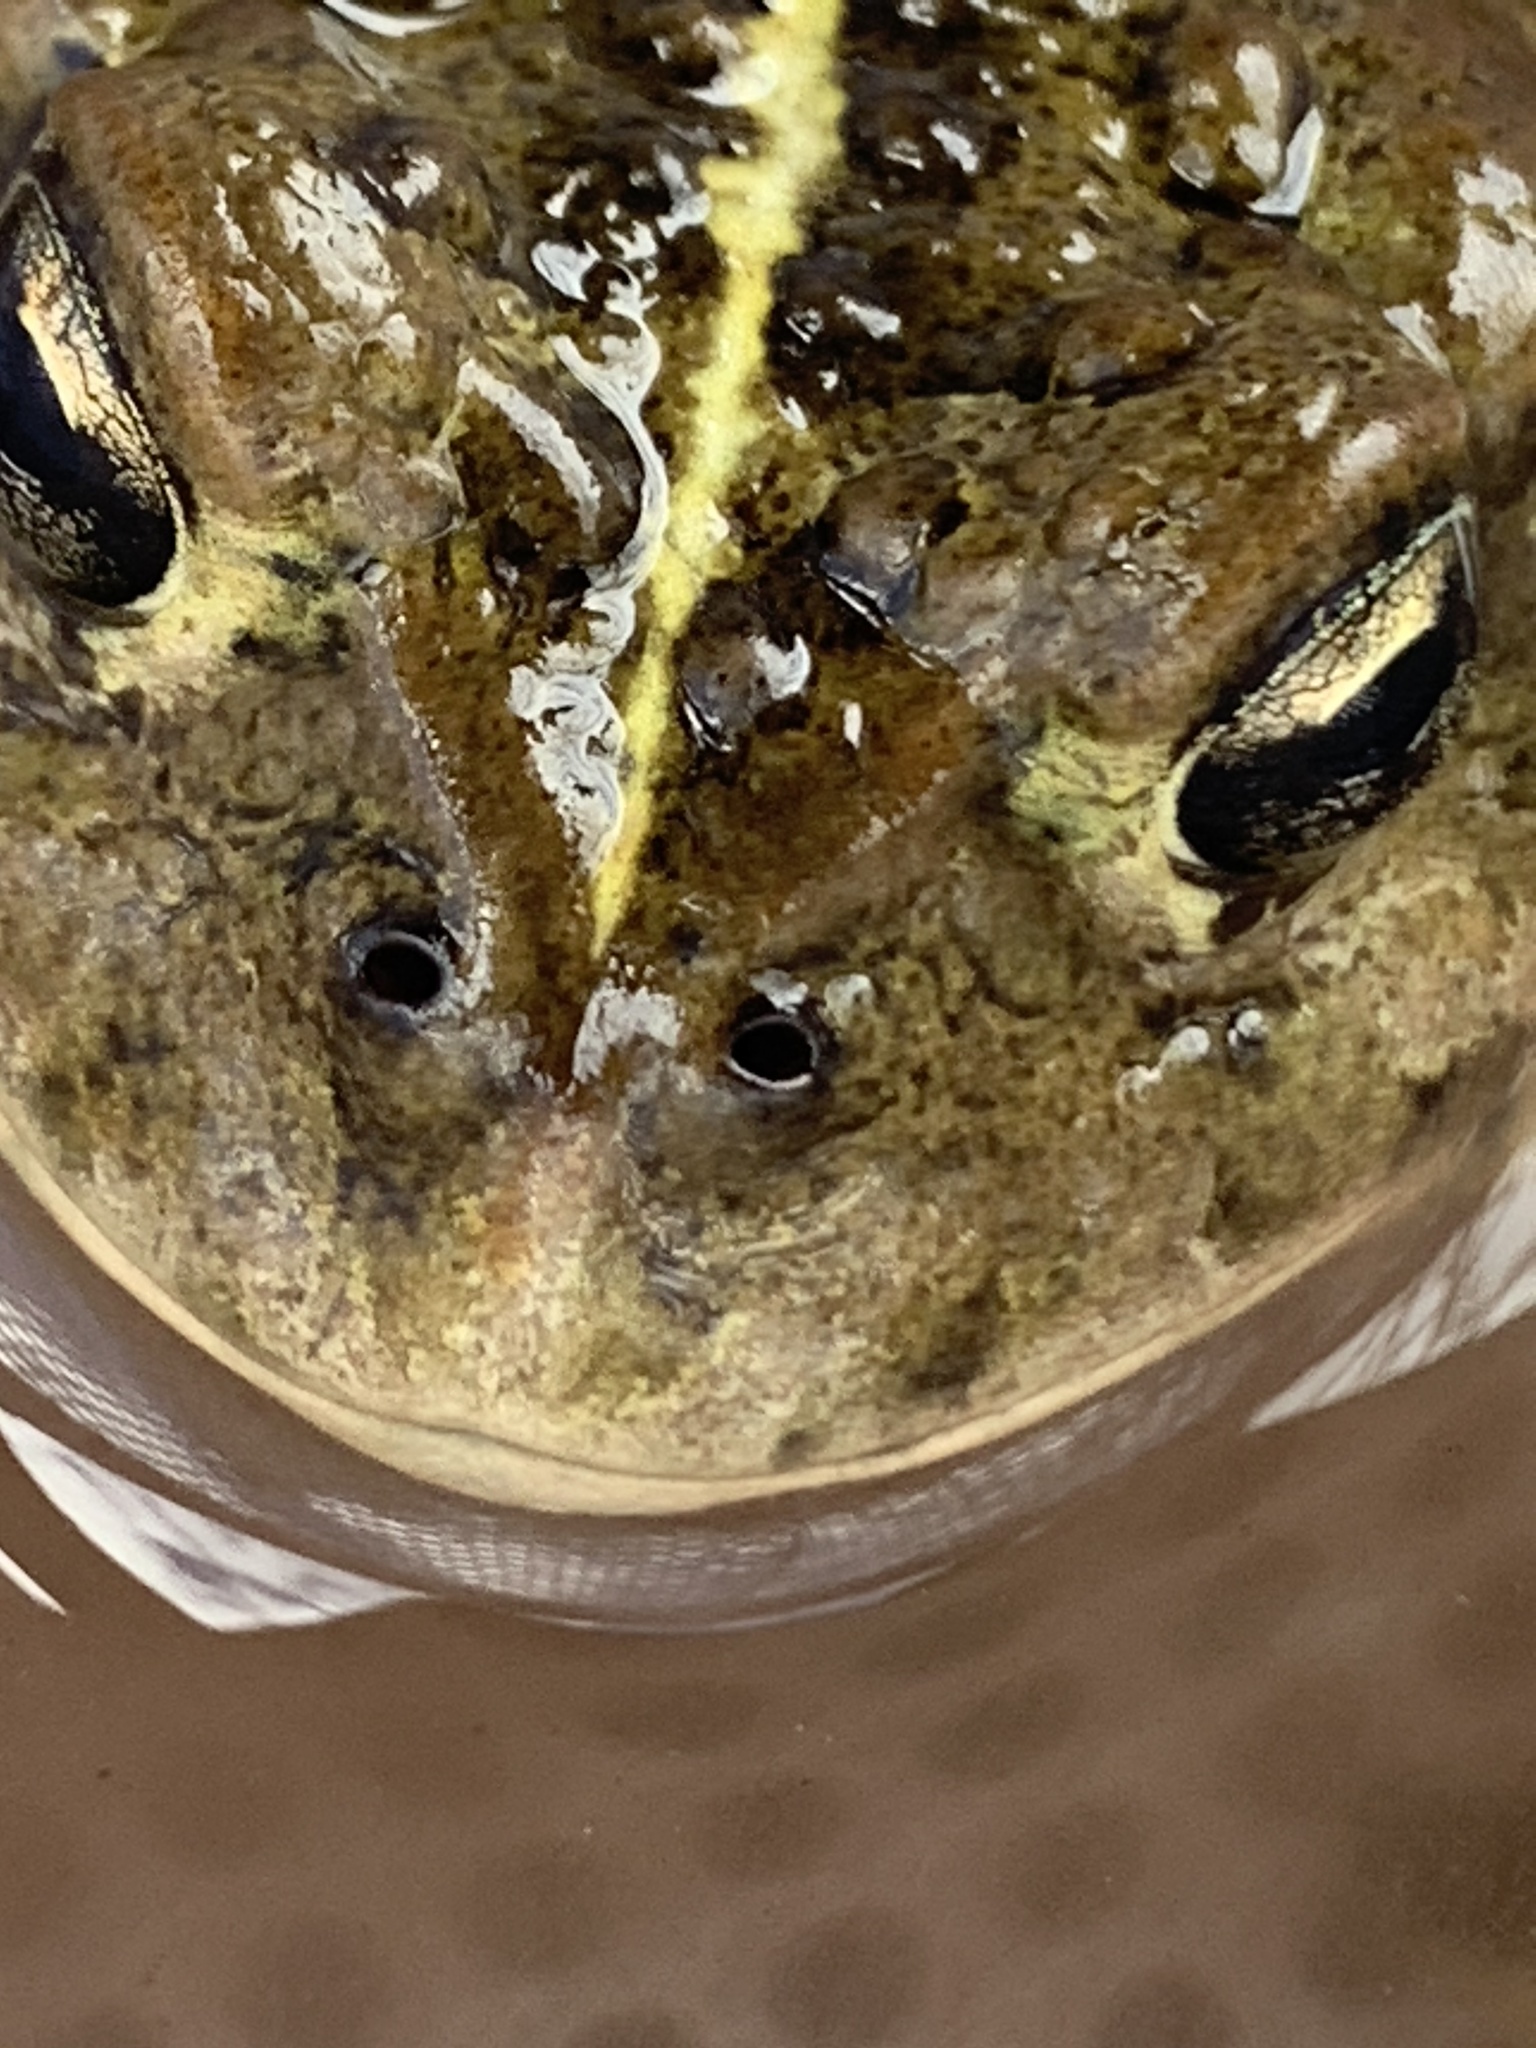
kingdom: Animalia
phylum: Chordata
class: Amphibia
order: Anura
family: Bufonidae
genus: Anaxyrus
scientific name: Anaxyrus boreas
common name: Western toad
